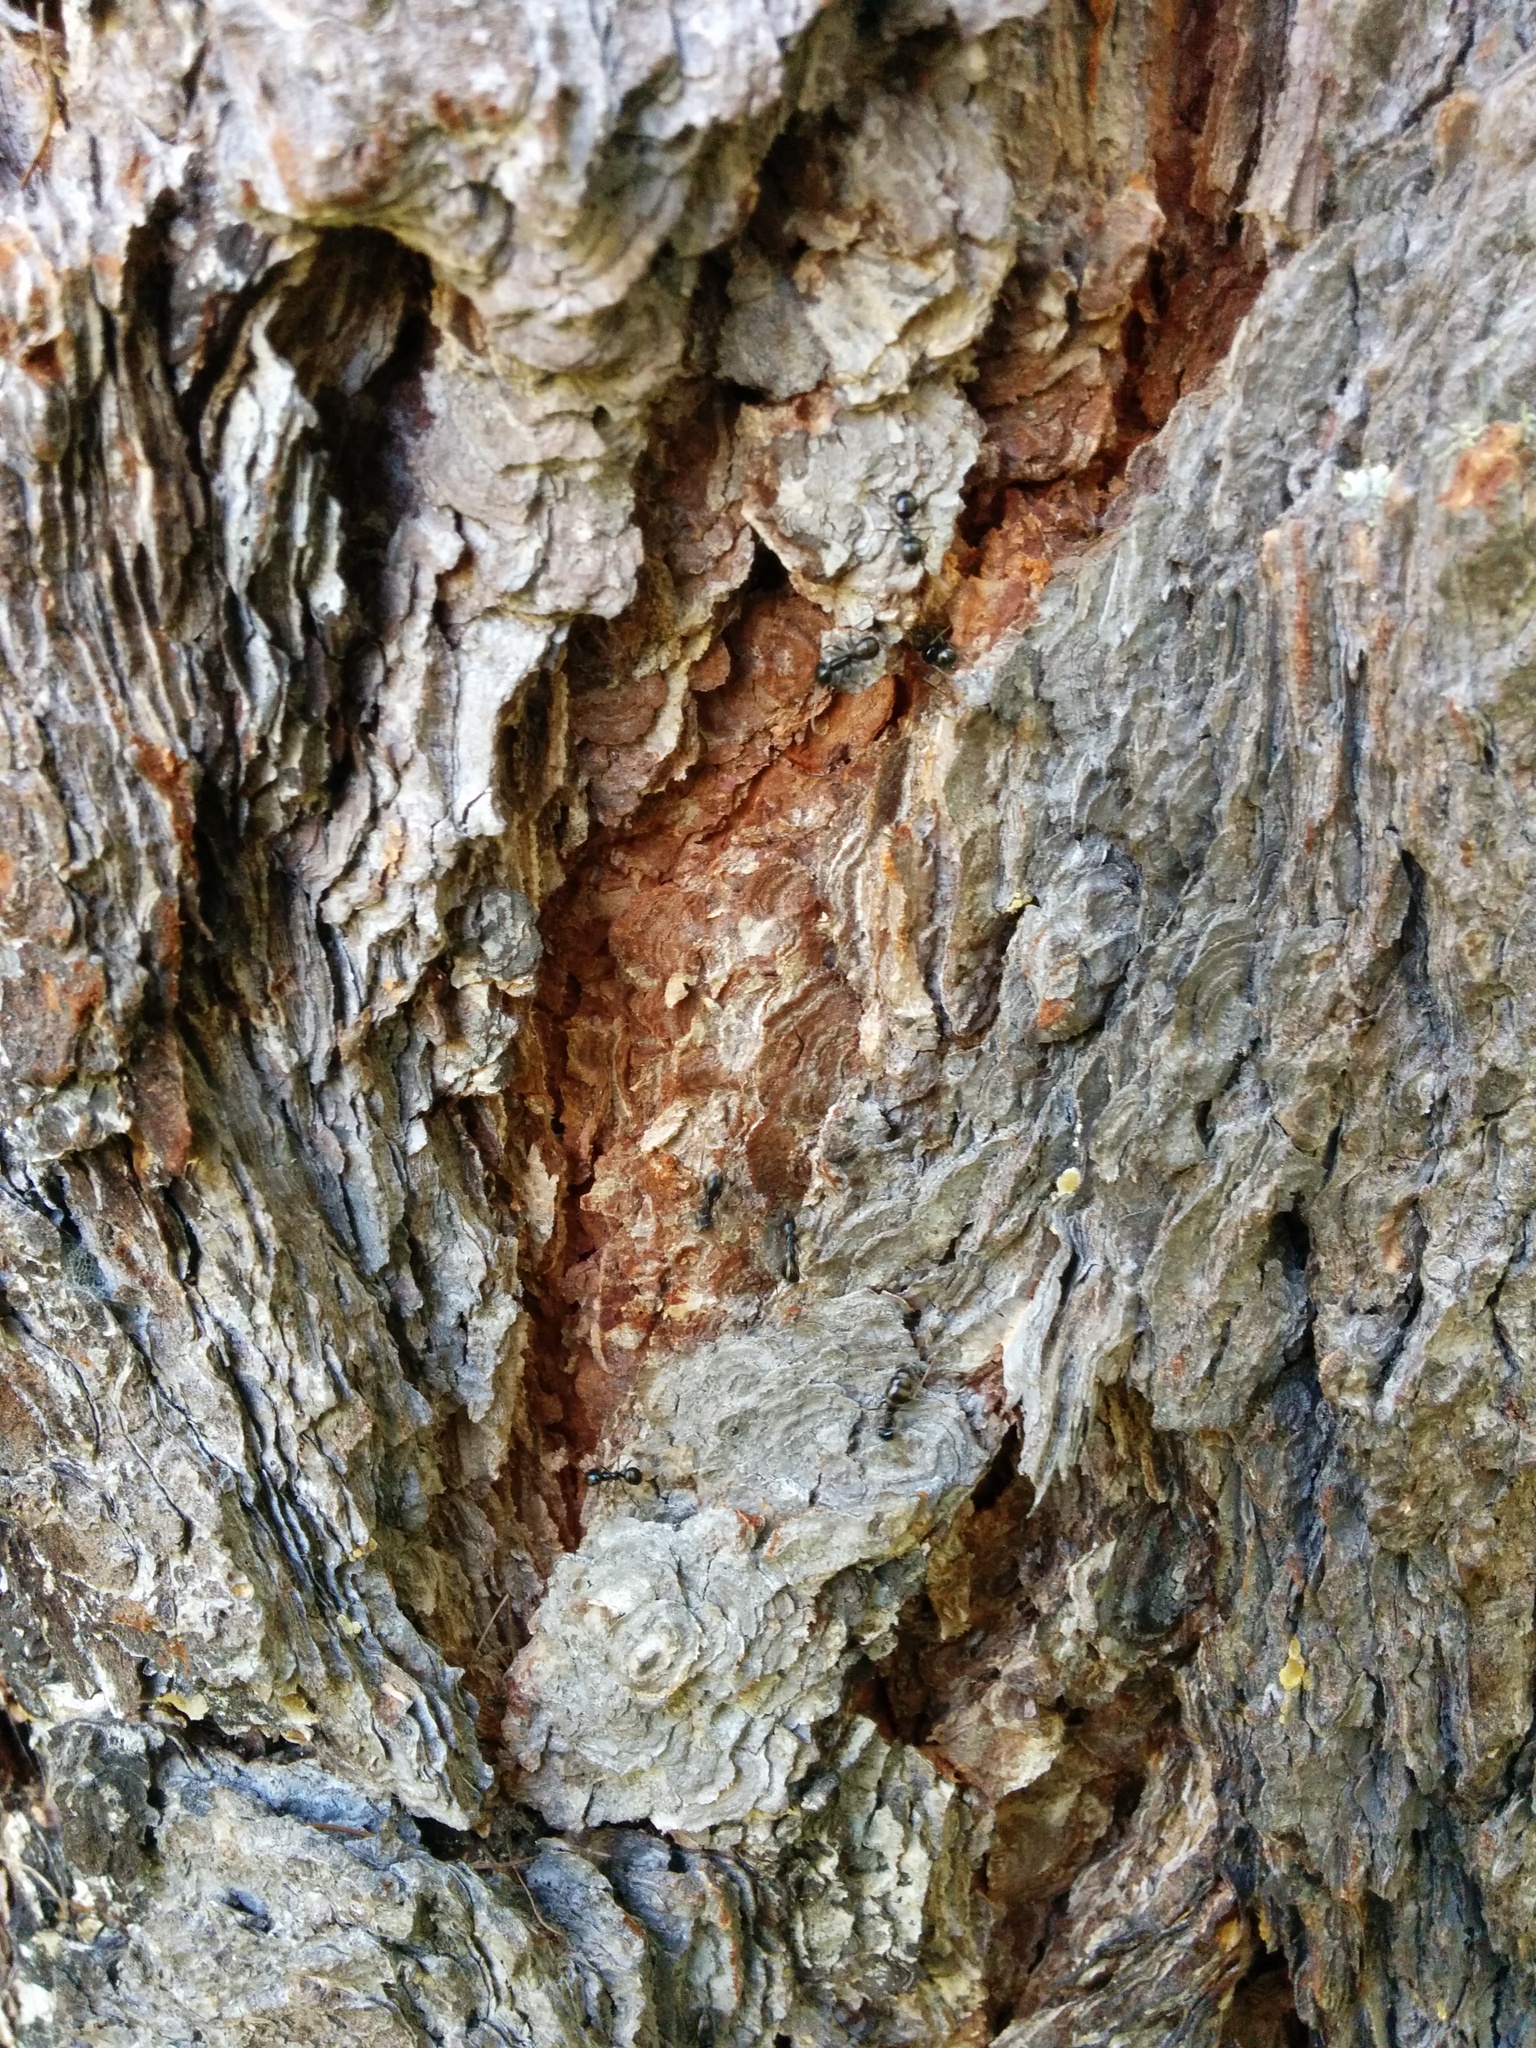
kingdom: Animalia
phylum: Arthropoda
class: Insecta
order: Hymenoptera
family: Formicidae
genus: Lasius
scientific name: Lasius fuliginosus
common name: Jet ant
